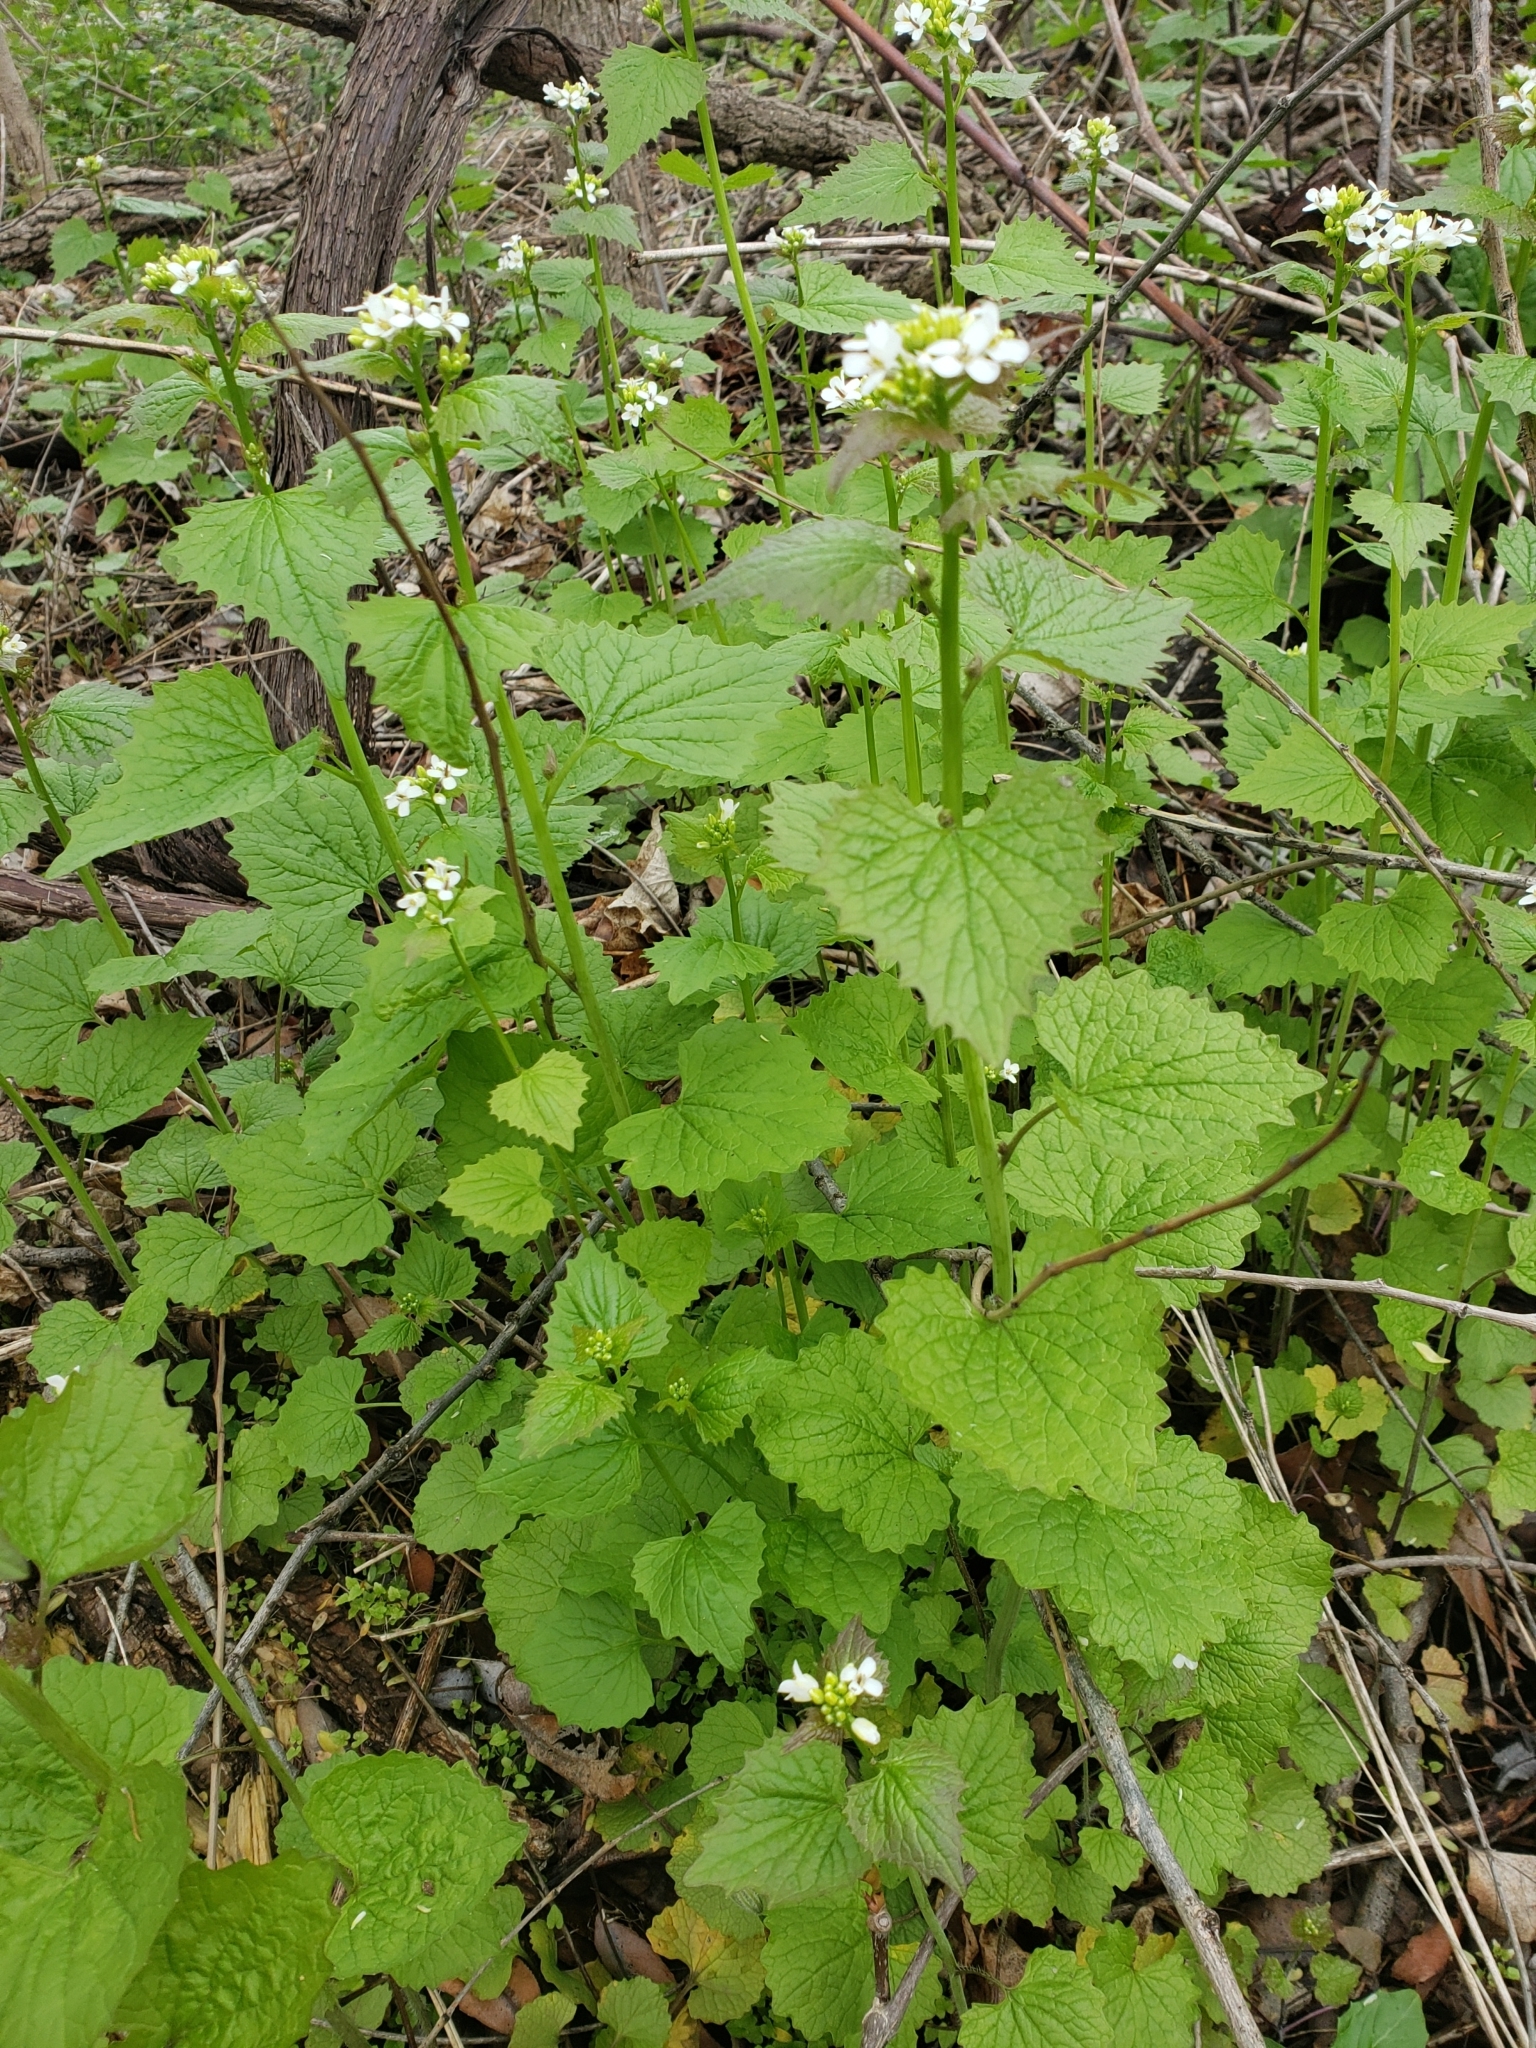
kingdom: Plantae
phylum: Tracheophyta
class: Magnoliopsida
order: Brassicales
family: Brassicaceae
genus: Alliaria
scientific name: Alliaria petiolata
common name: Garlic mustard
